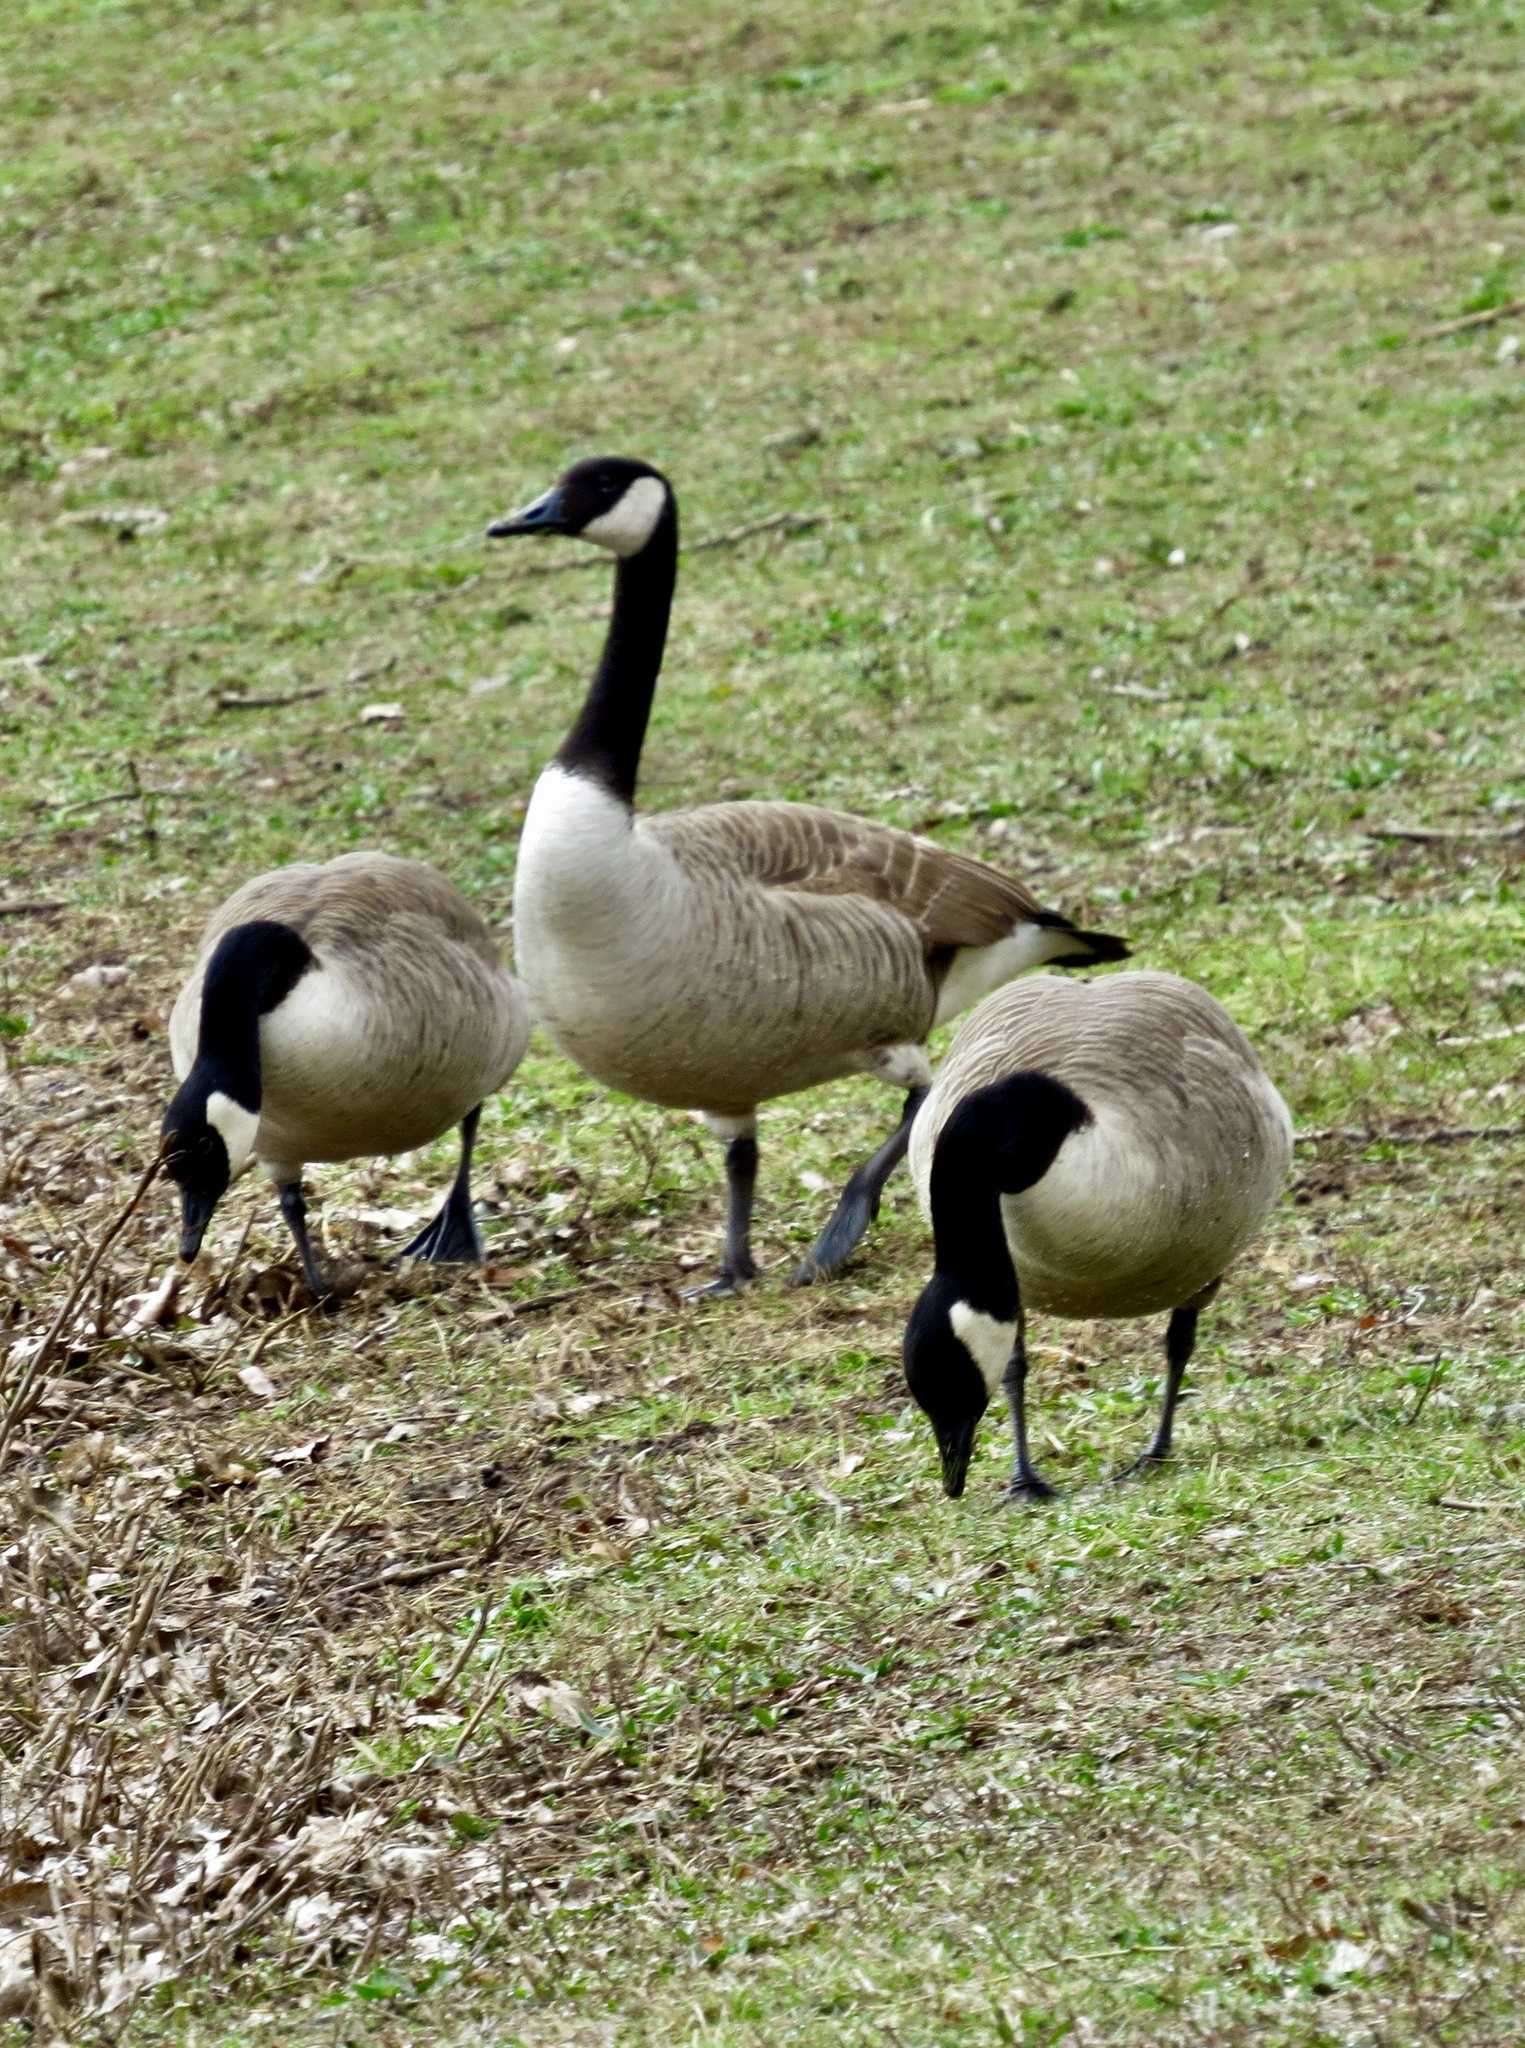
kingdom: Animalia
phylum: Chordata
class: Aves
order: Anseriformes
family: Anatidae
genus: Branta
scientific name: Branta canadensis
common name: Canada goose
